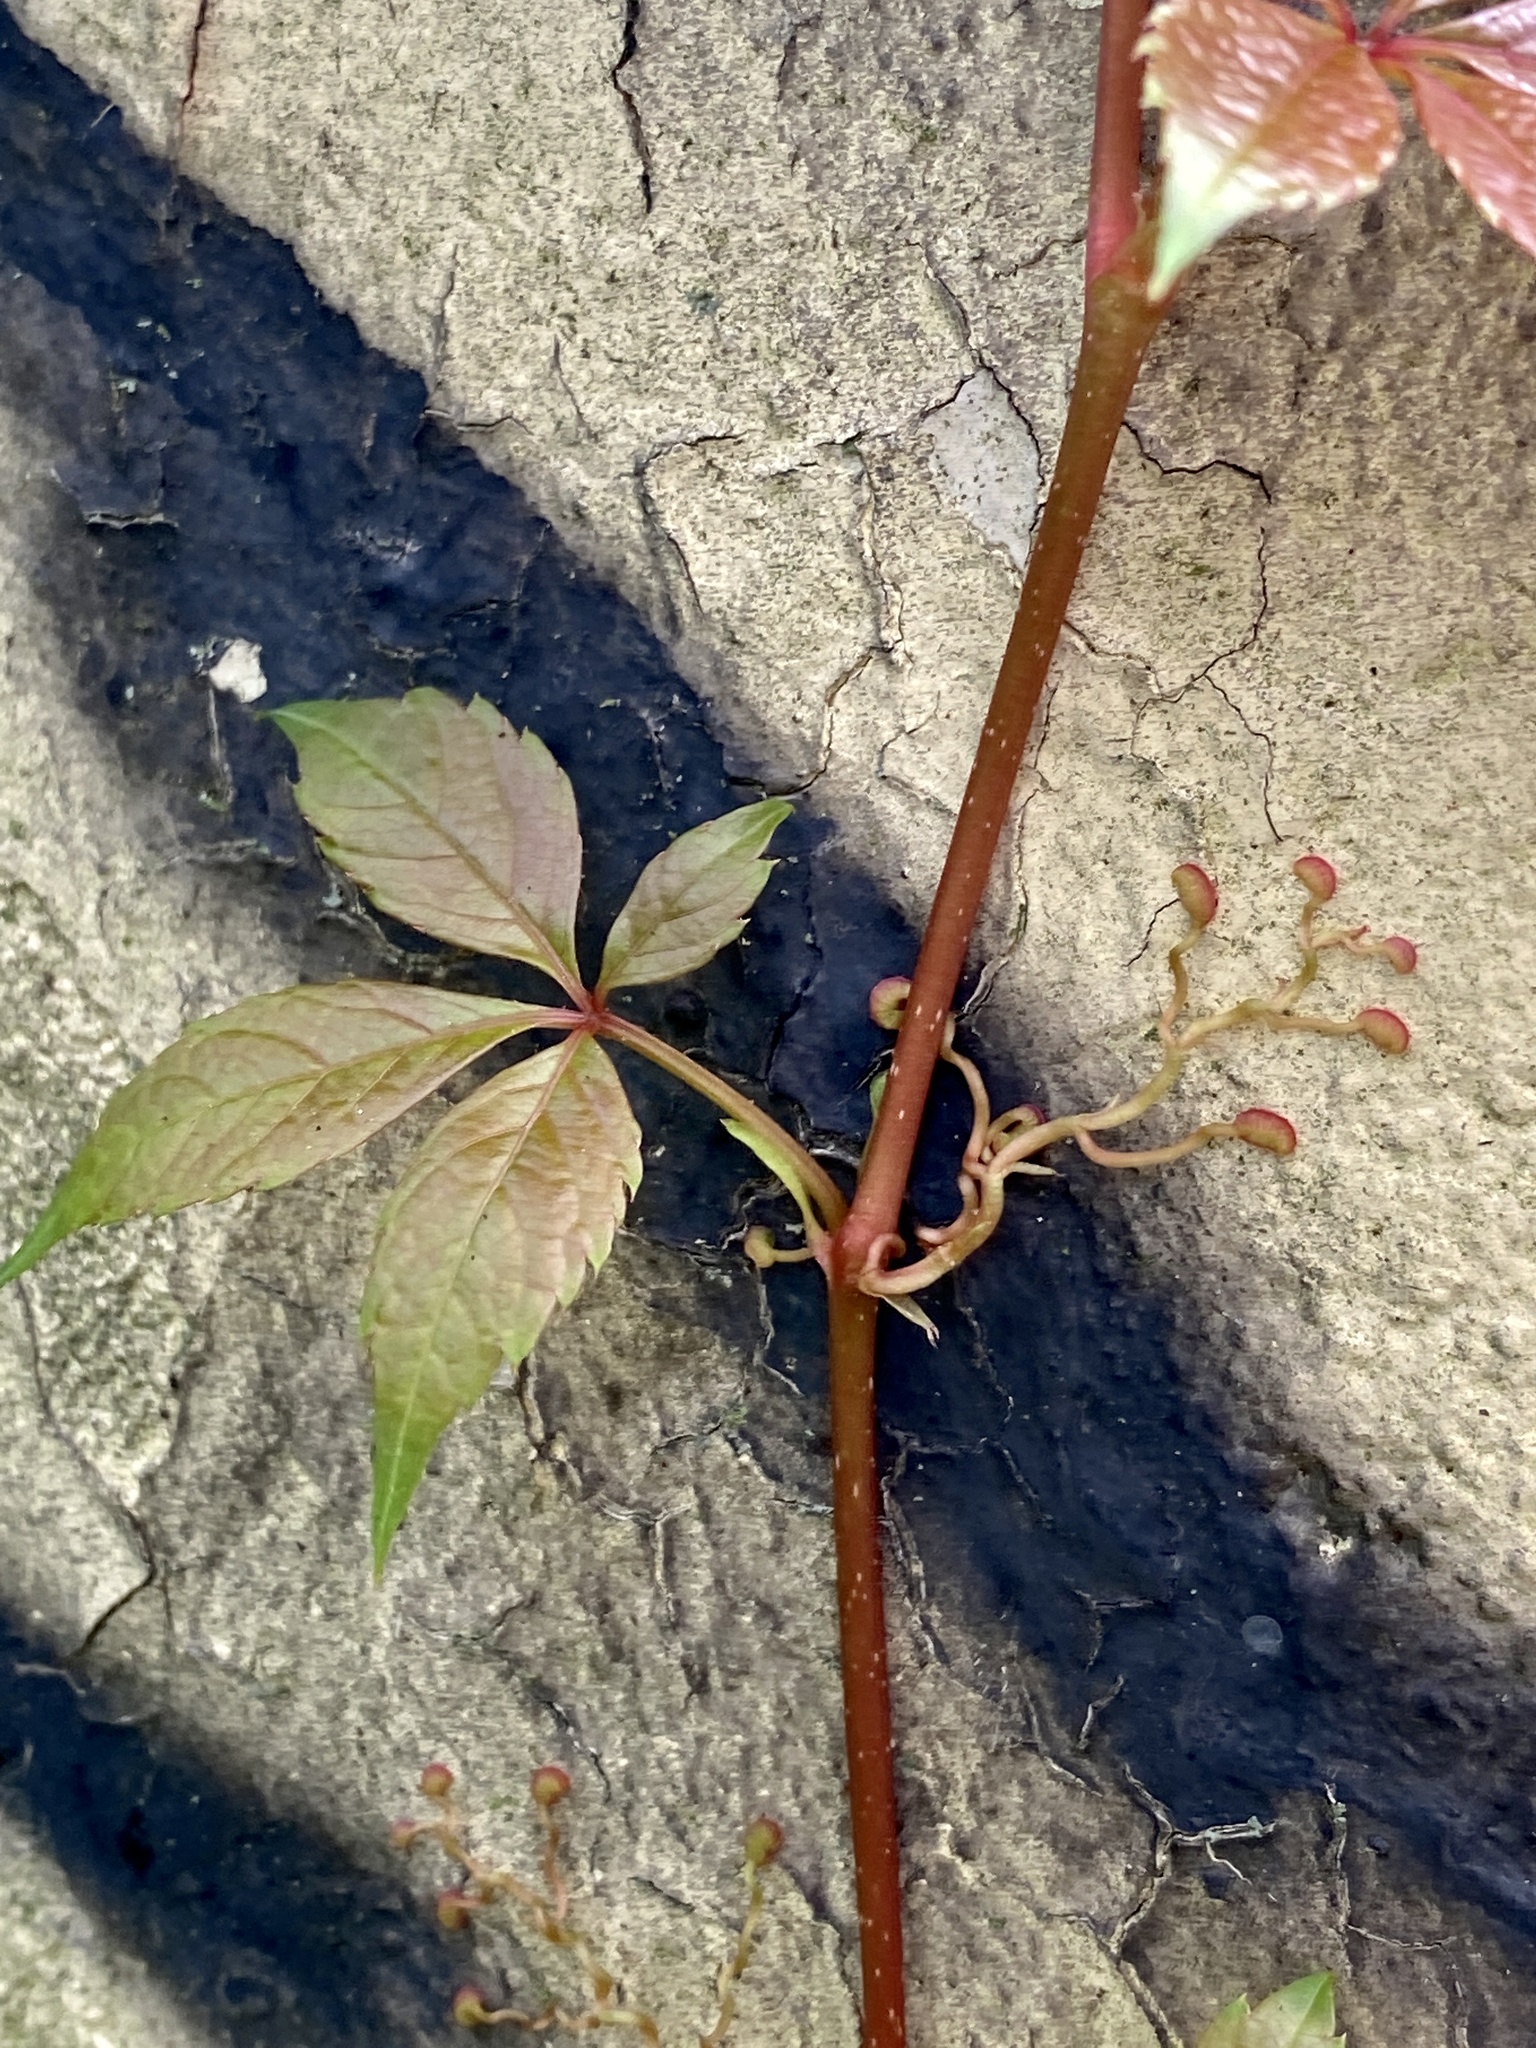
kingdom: Plantae
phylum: Tracheophyta
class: Magnoliopsida
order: Vitales
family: Vitaceae
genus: Parthenocissus
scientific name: Parthenocissus quinquefolia
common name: Virginia-creeper
